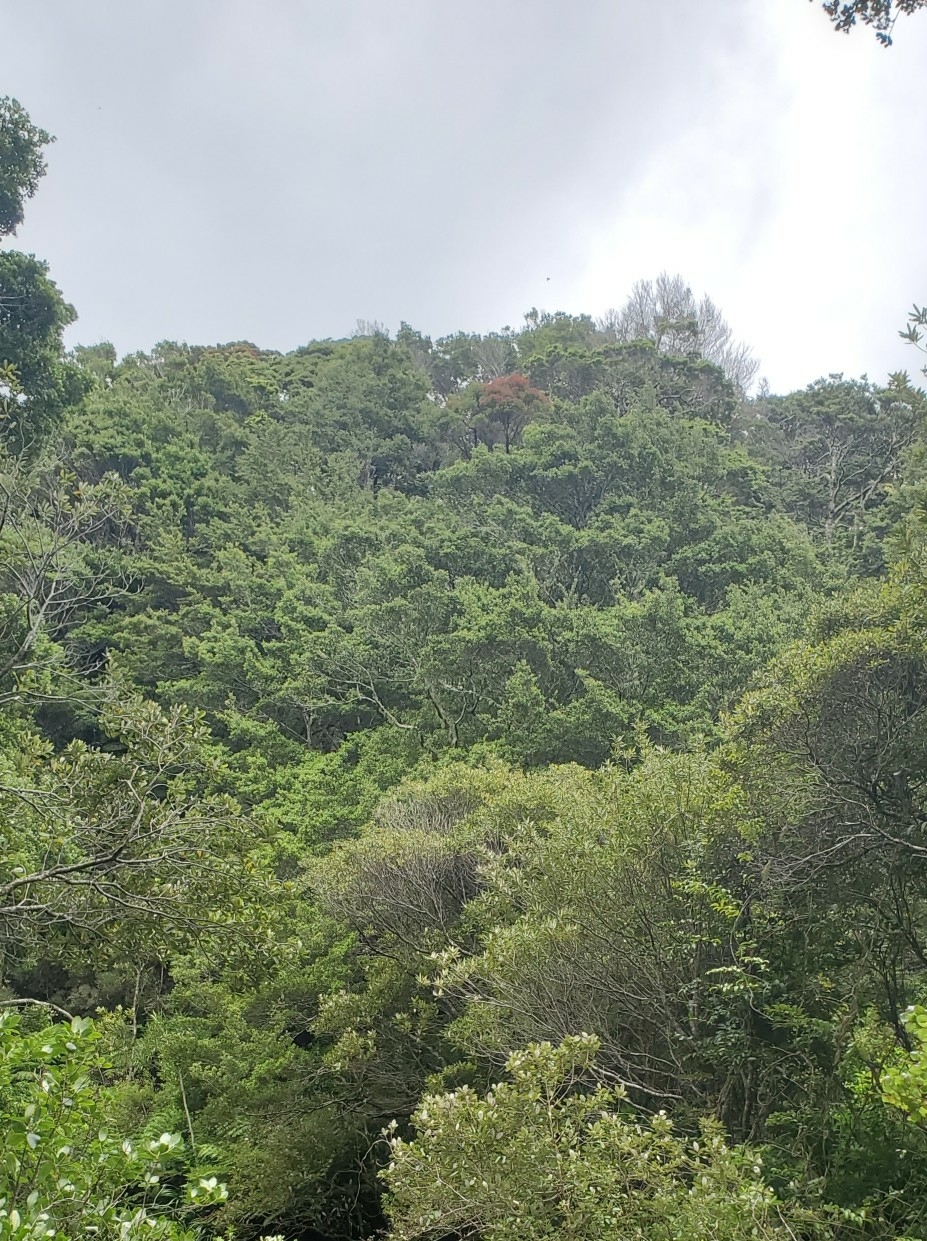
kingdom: Plantae
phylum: Tracheophyta
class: Magnoliopsida
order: Myrtales
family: Myrtaceae
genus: Metrosideros
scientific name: Metrosideros robusta
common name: Northern rata
